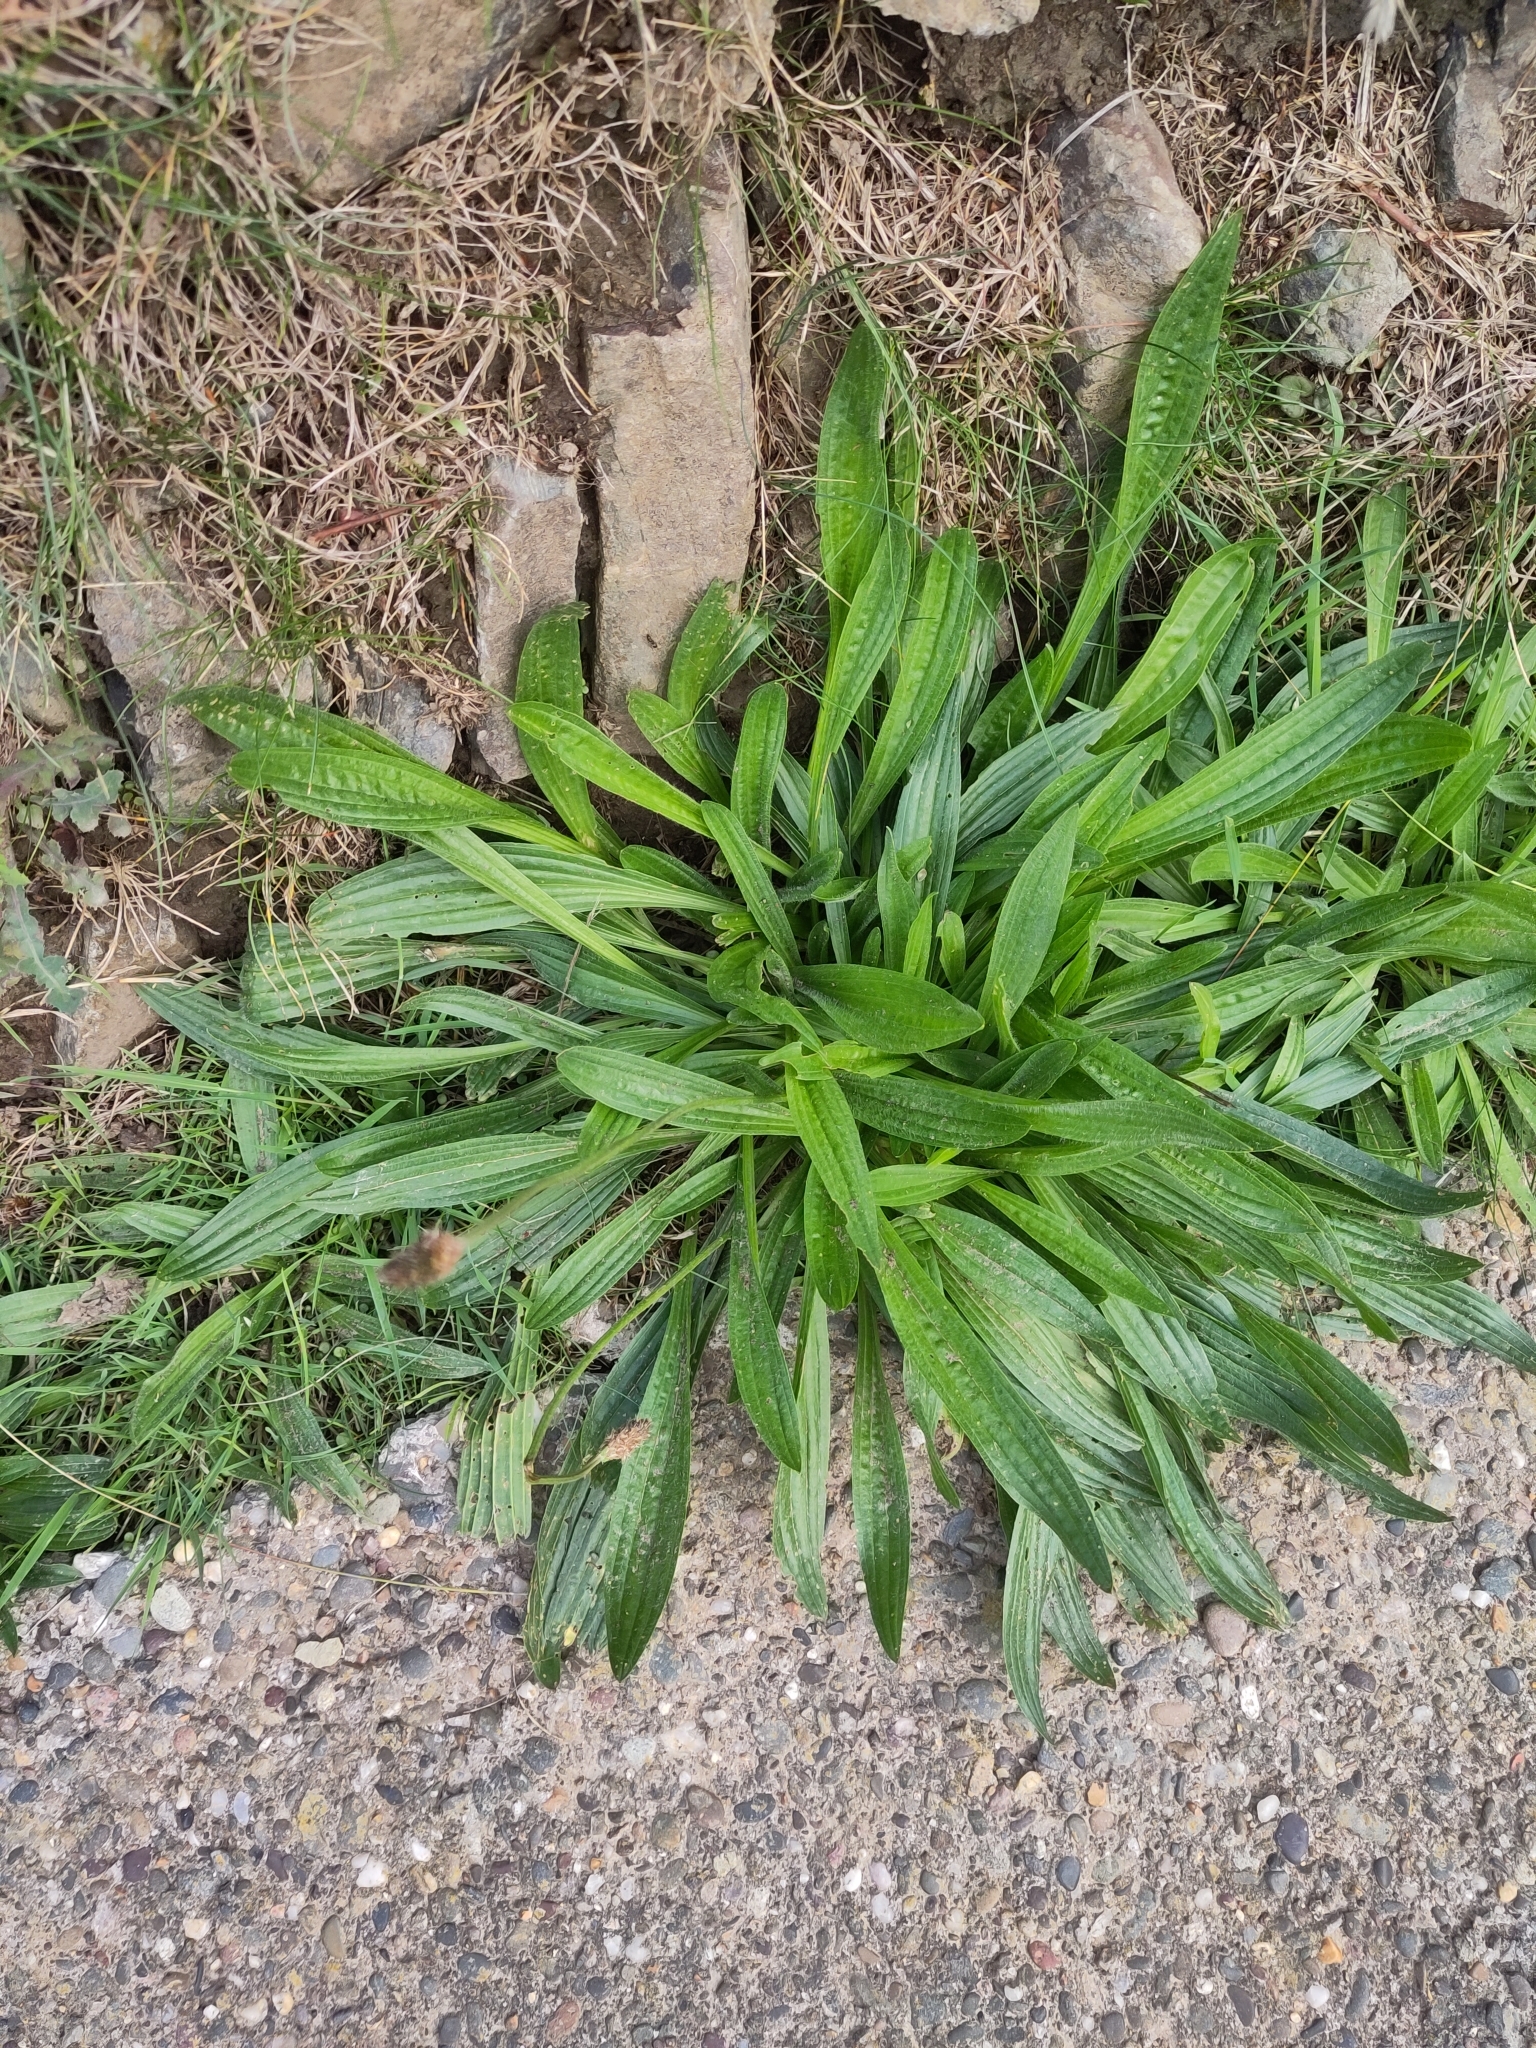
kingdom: Plantae
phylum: Tracheophyta
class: Magnoliopsida
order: Lamiales
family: Plantaginaceae
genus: Plantago
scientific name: Plantago lanceolata
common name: Ribwort plantain
